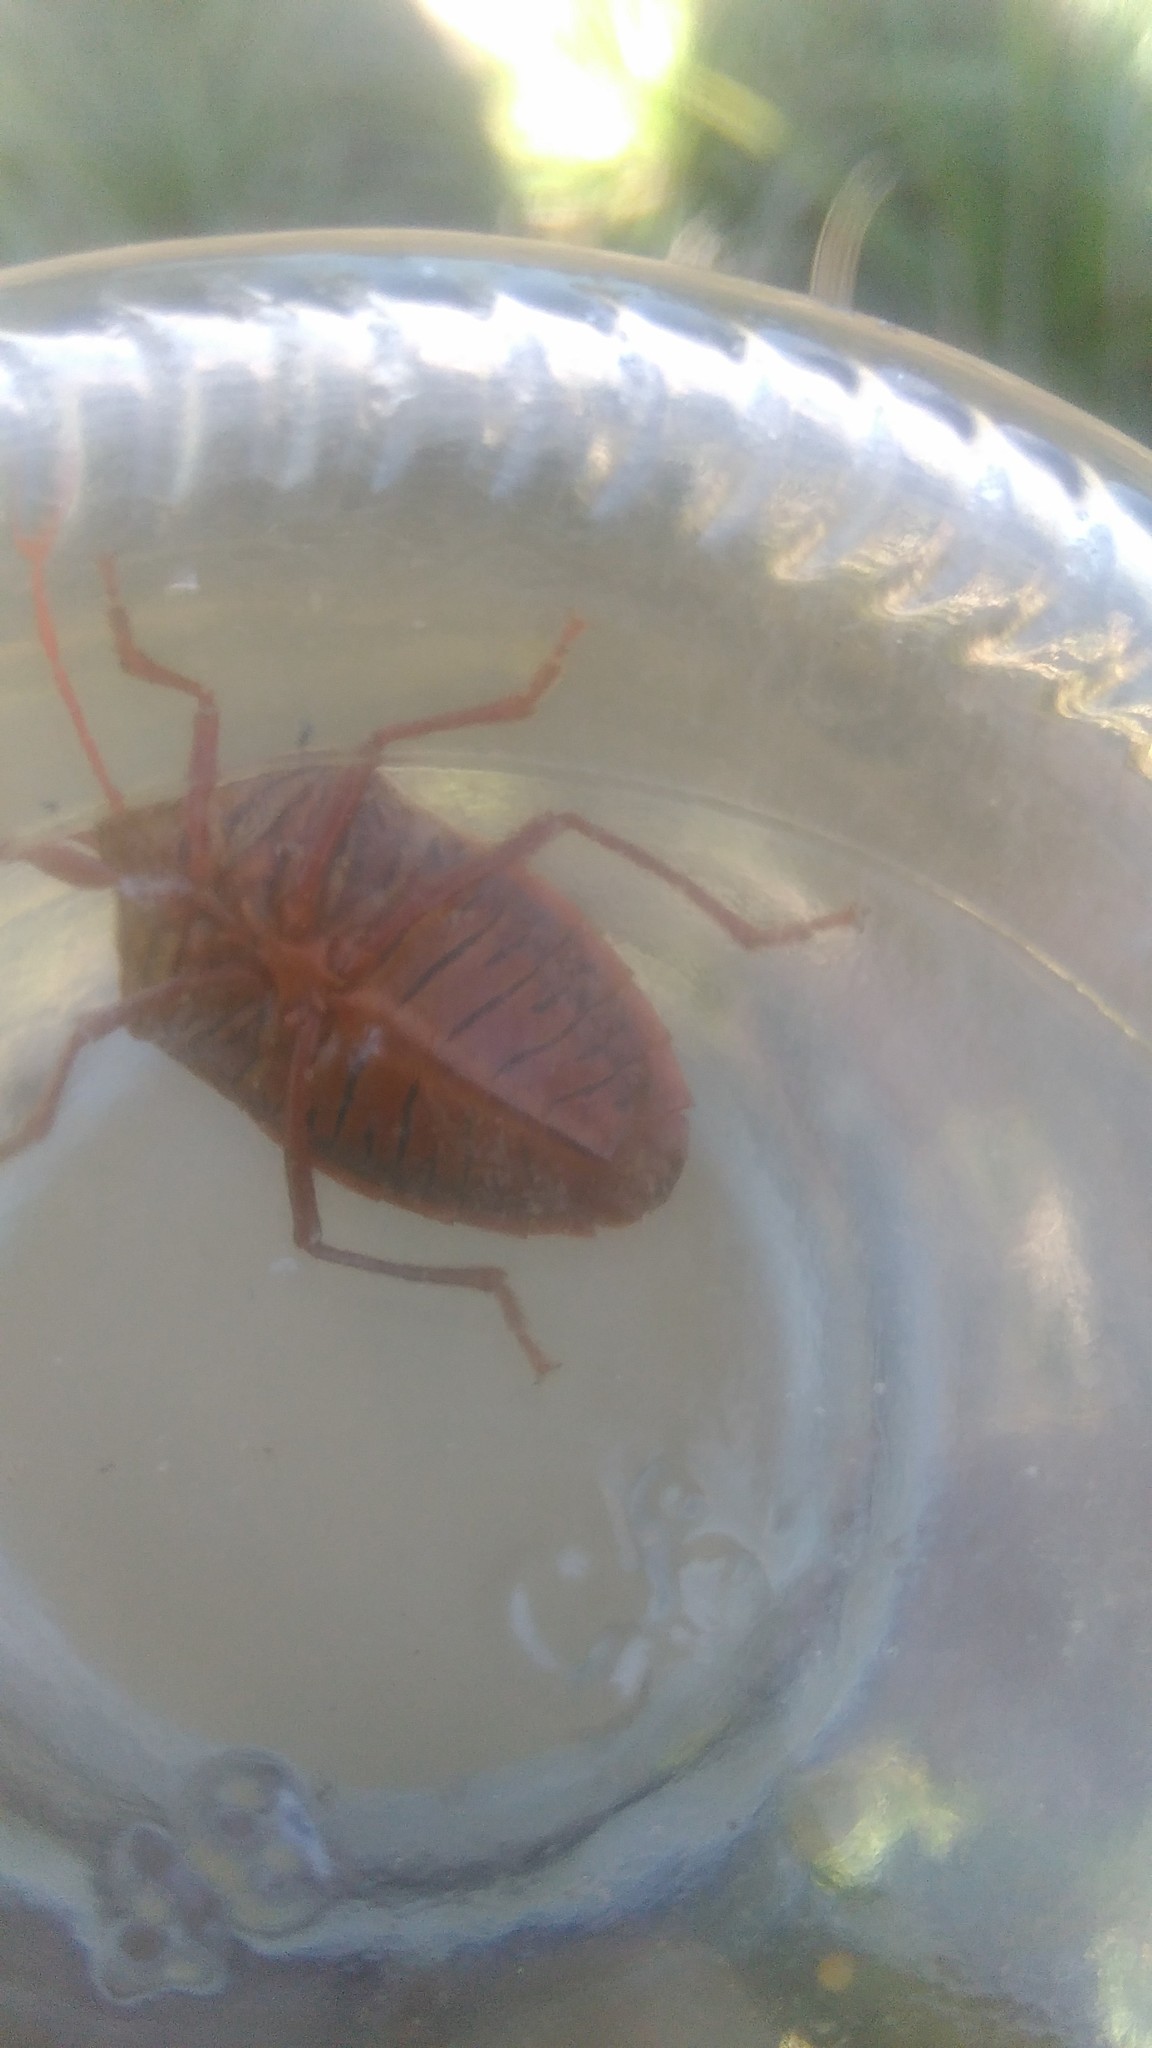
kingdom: Animalia
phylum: Arthropoda
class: Insecta
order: Hemiptera
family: Pentatomidae
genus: Edessa
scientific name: Edessa
